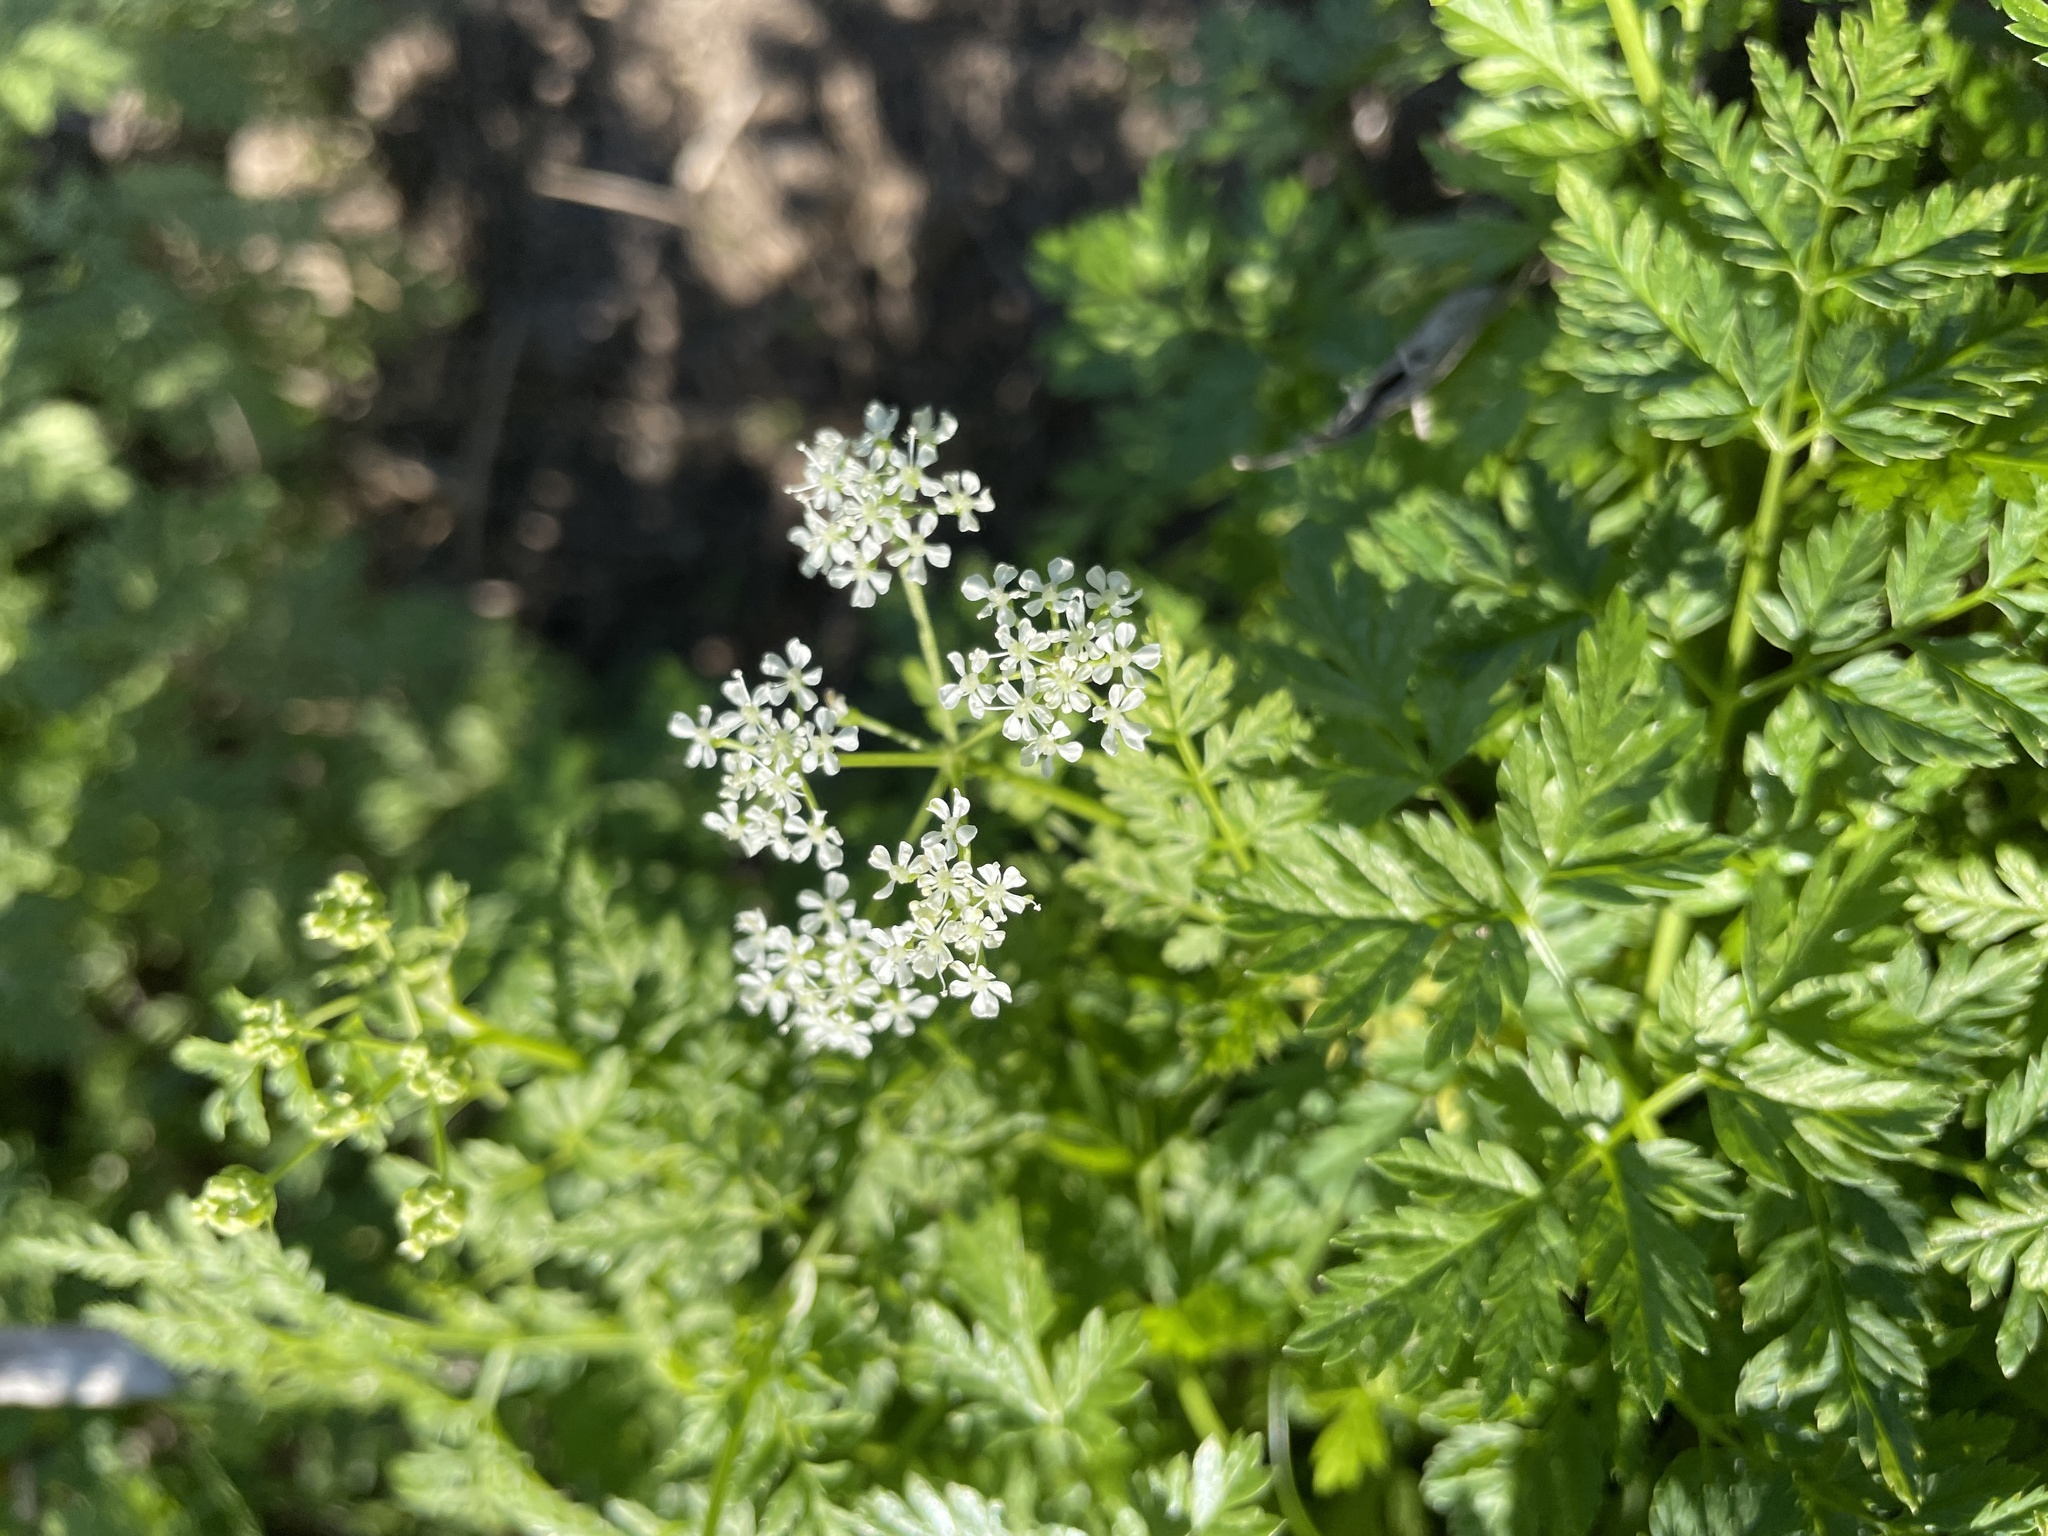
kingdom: Plantae
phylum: Tracheophyta
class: Magnoliopsida
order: Apiales
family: Apiaceae
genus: Conium
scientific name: Conium maculatum
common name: Hemlock
